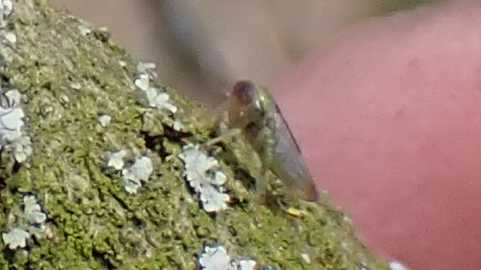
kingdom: Animalia
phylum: Arthropoda
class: Insecta
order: Hemiptera
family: Cicadellidae
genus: Viridicerus
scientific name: Viridicerus ustulatus
